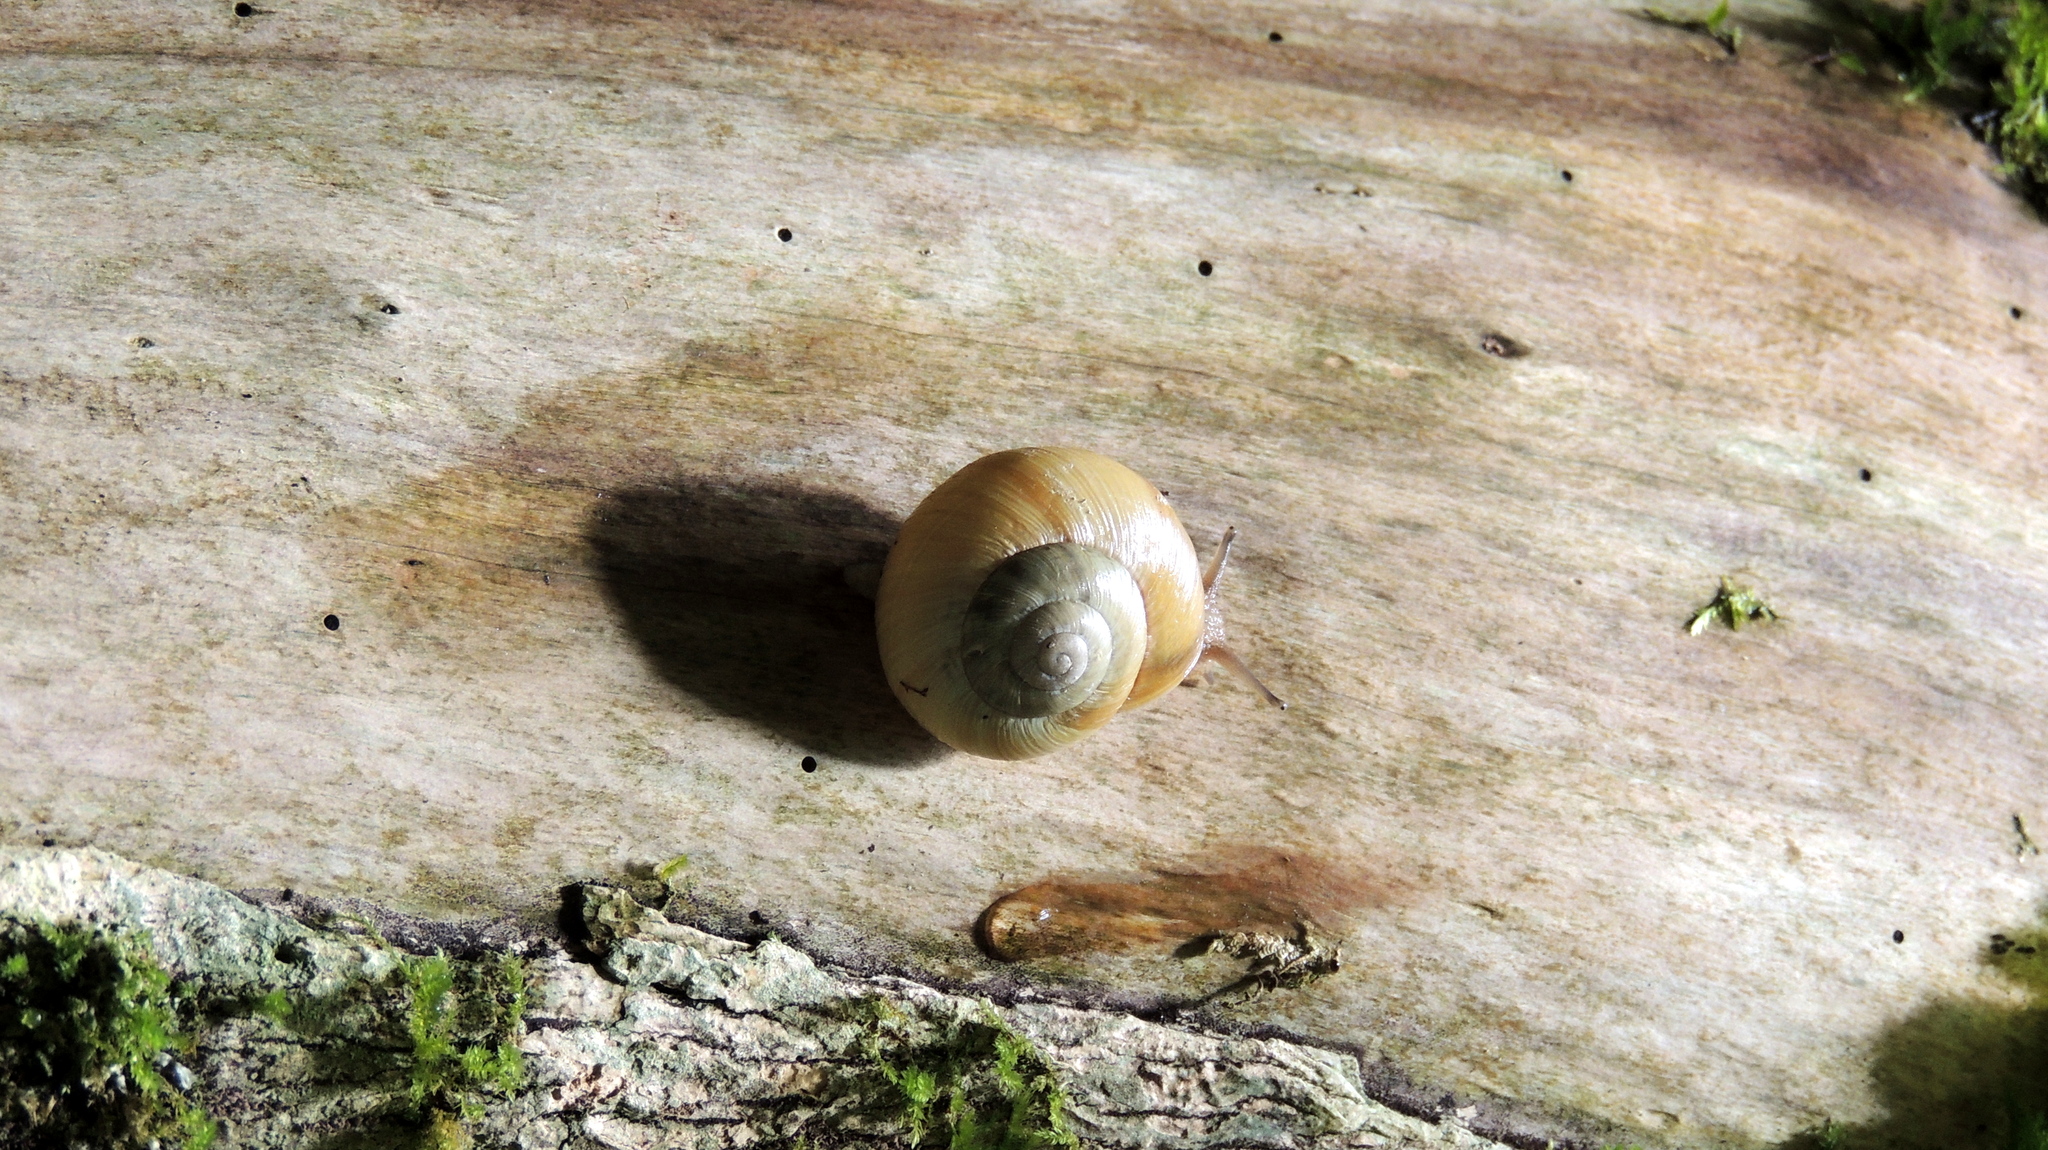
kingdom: Animalia
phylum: Mollusca
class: Gastropoda
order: Stylommatophora
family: Helicidae
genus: Caucasotachea
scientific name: Caucasotachea atrolabiata
